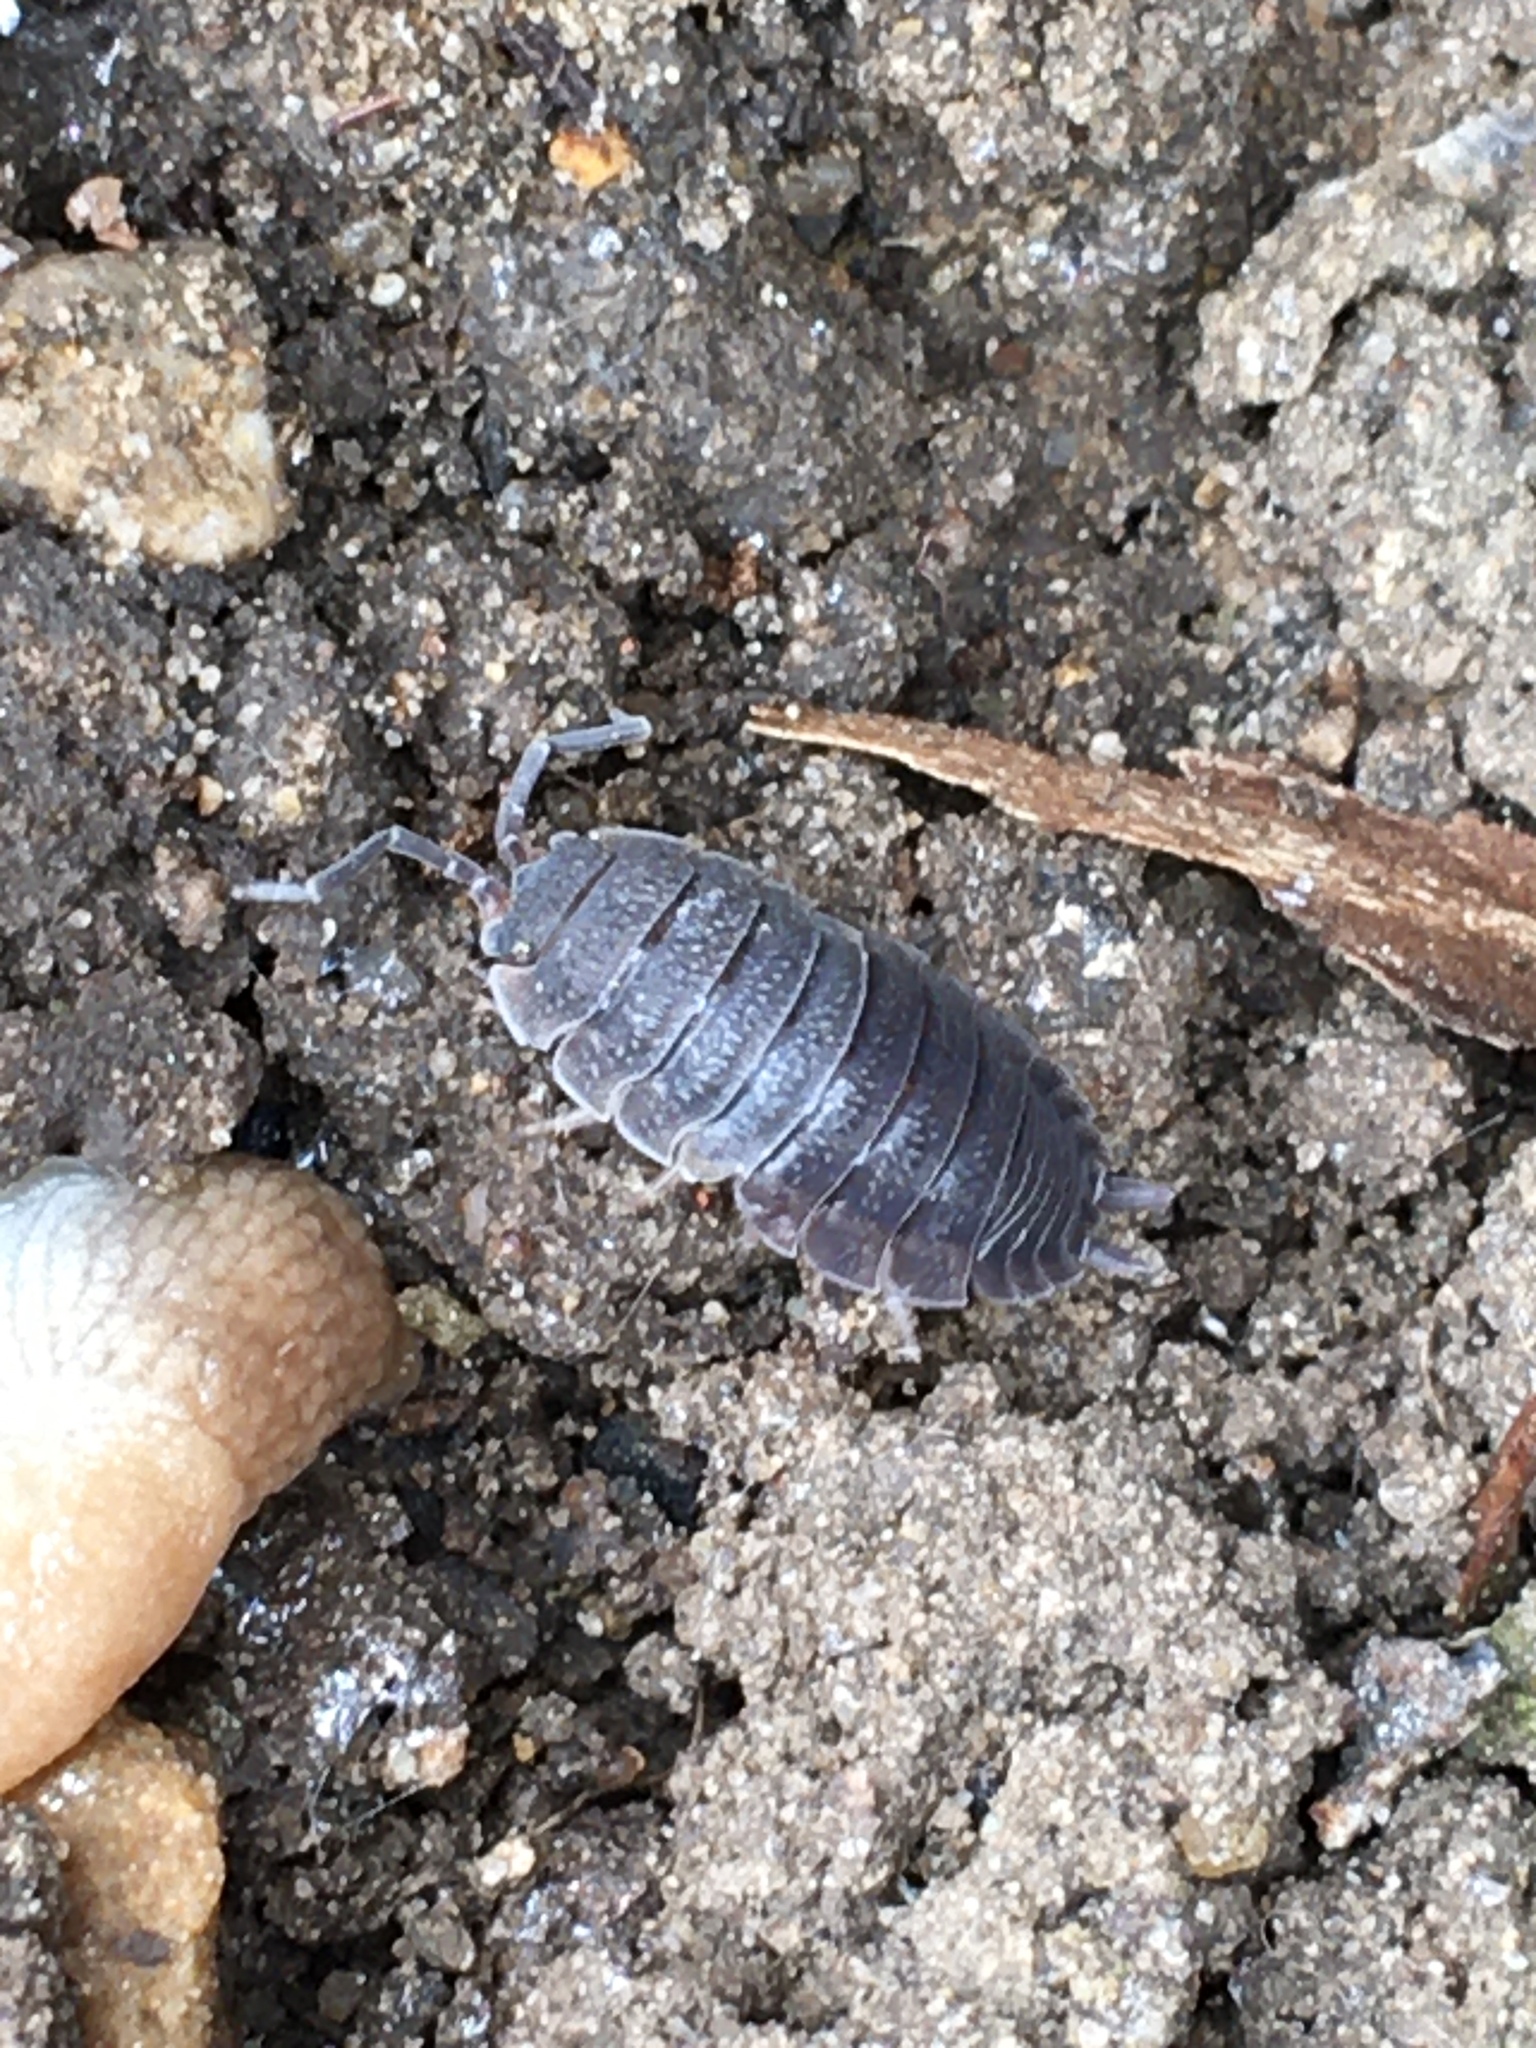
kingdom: Animalia
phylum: Arthropoda
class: Malacostraca
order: Isopoda
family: Porcellionidae
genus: Porcellio
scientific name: Porcellio scaber
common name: Common rough woodlouse
